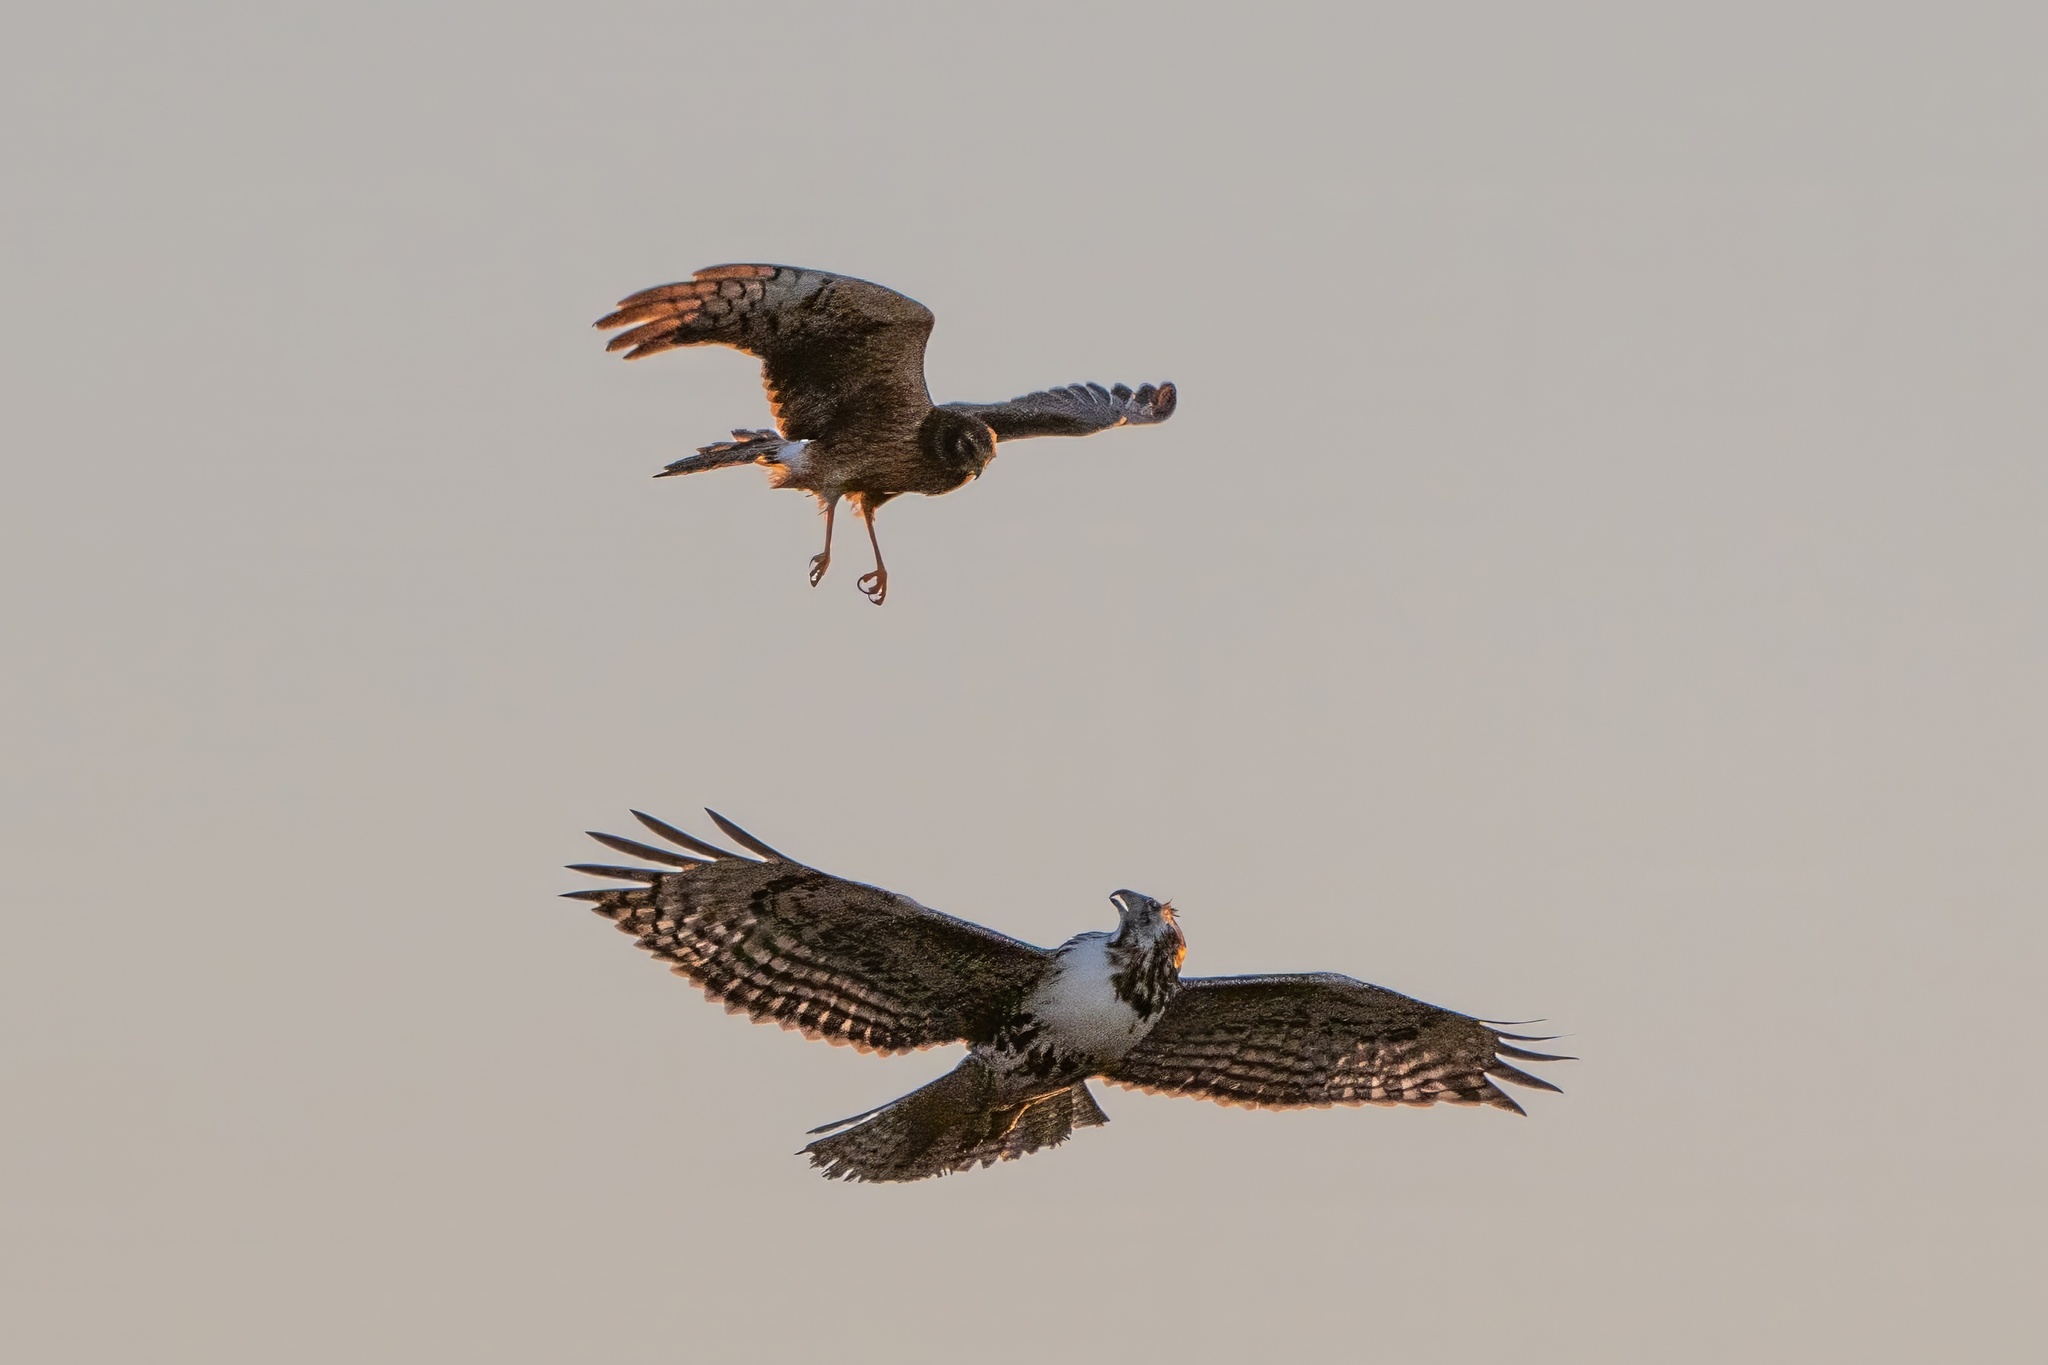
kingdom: Animalia
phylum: Chordata
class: Aves
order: Accipitriformes
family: Accipitridae
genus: Circus
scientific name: Circus cyaneus
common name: Hen harrier
